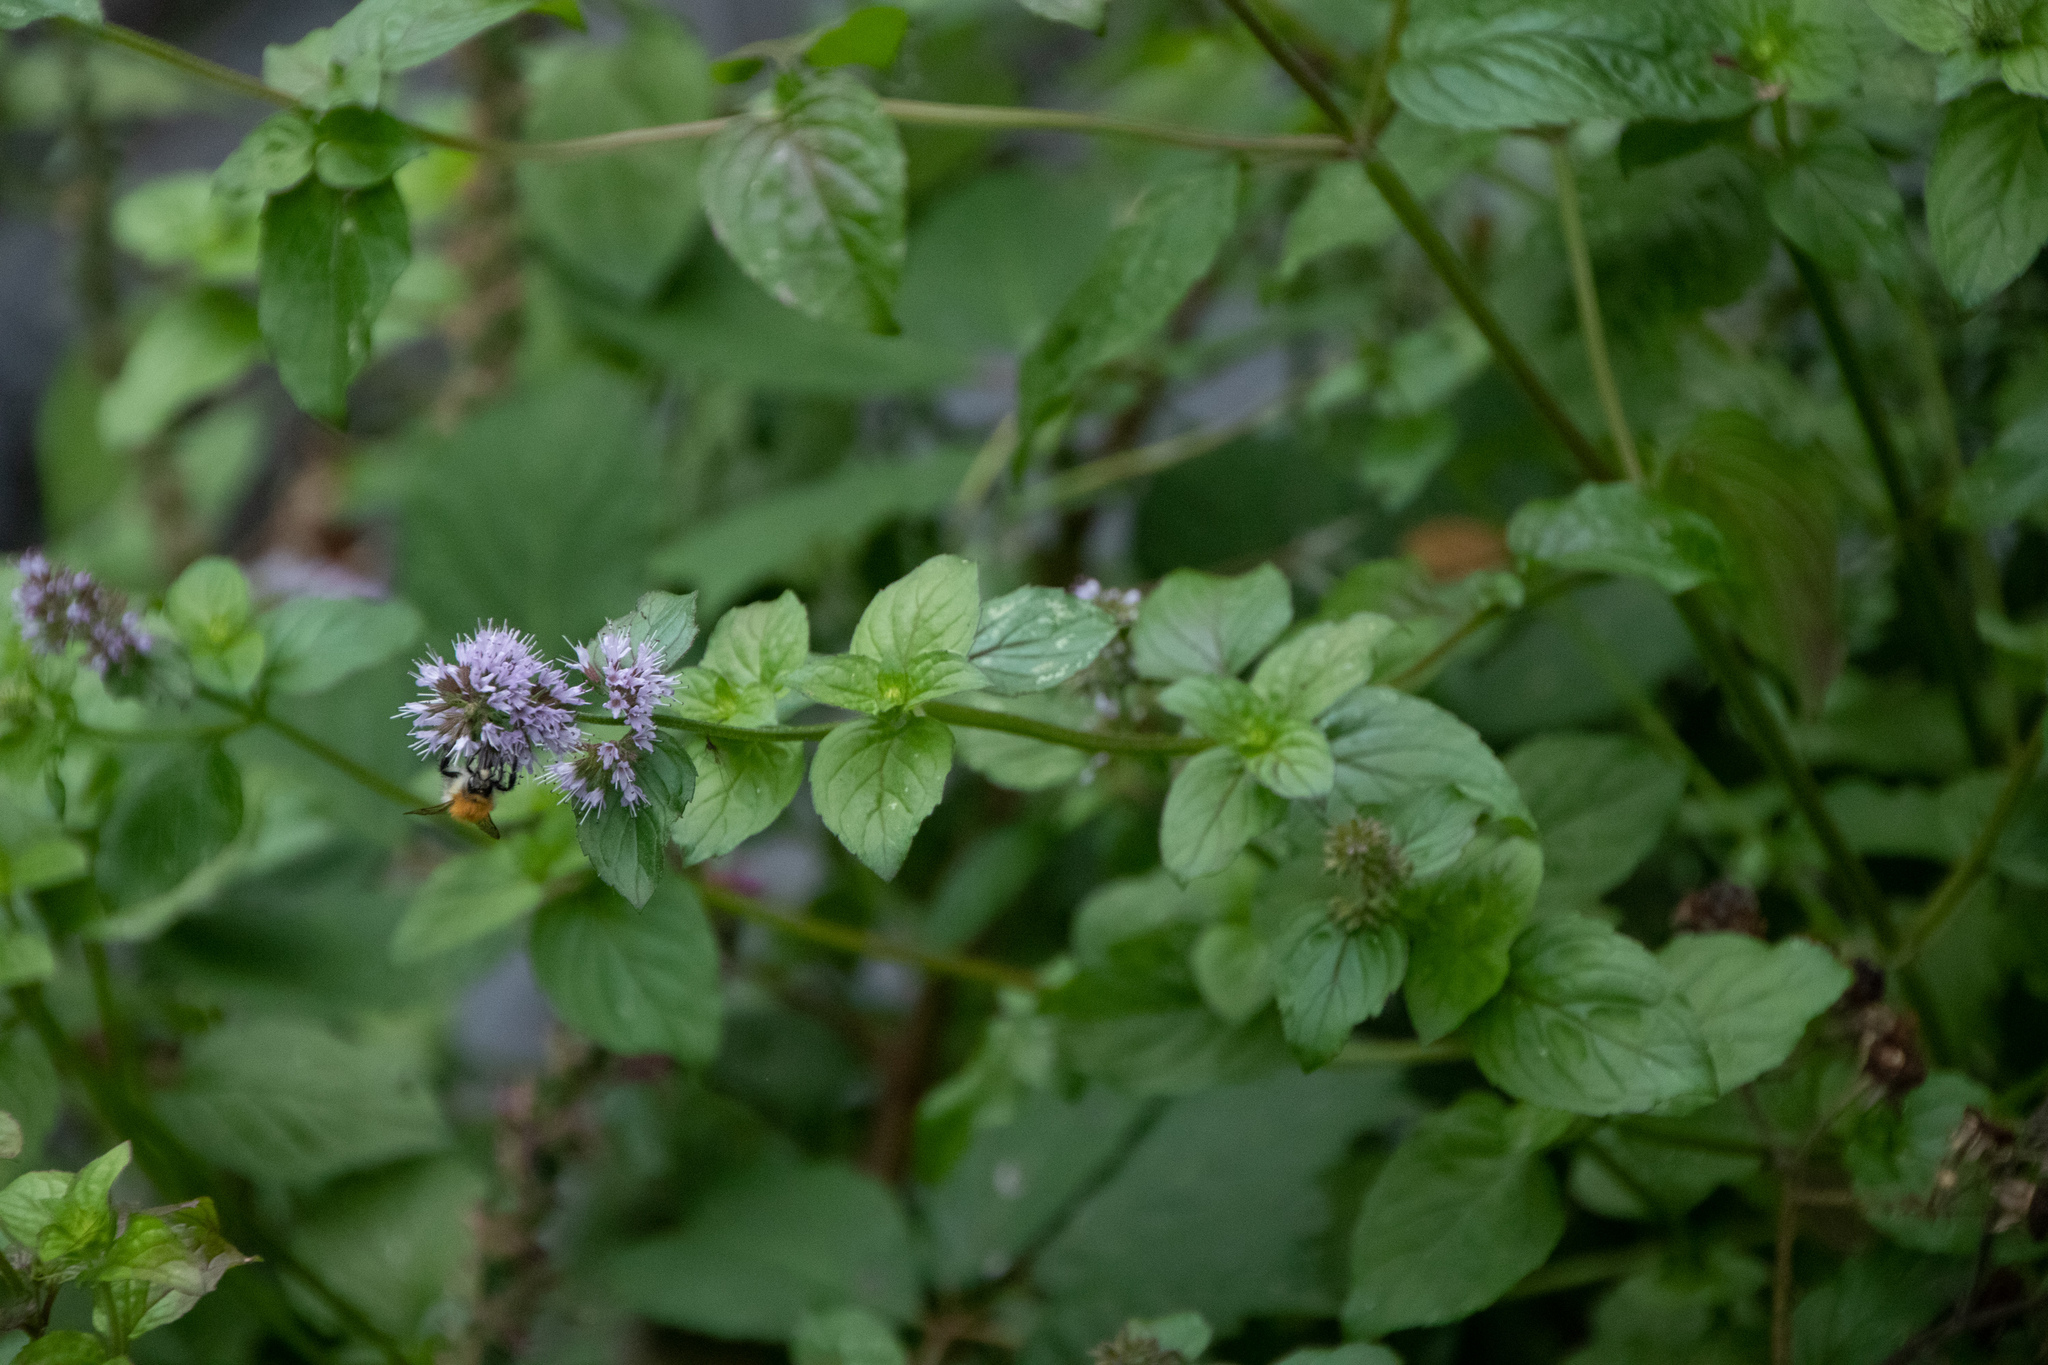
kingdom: Plantae
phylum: Tracheophyta
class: Magnoliopsida
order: Lamiales
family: Lamiaceae
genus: Mentha
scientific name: Mentha aquatica
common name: Water mint
